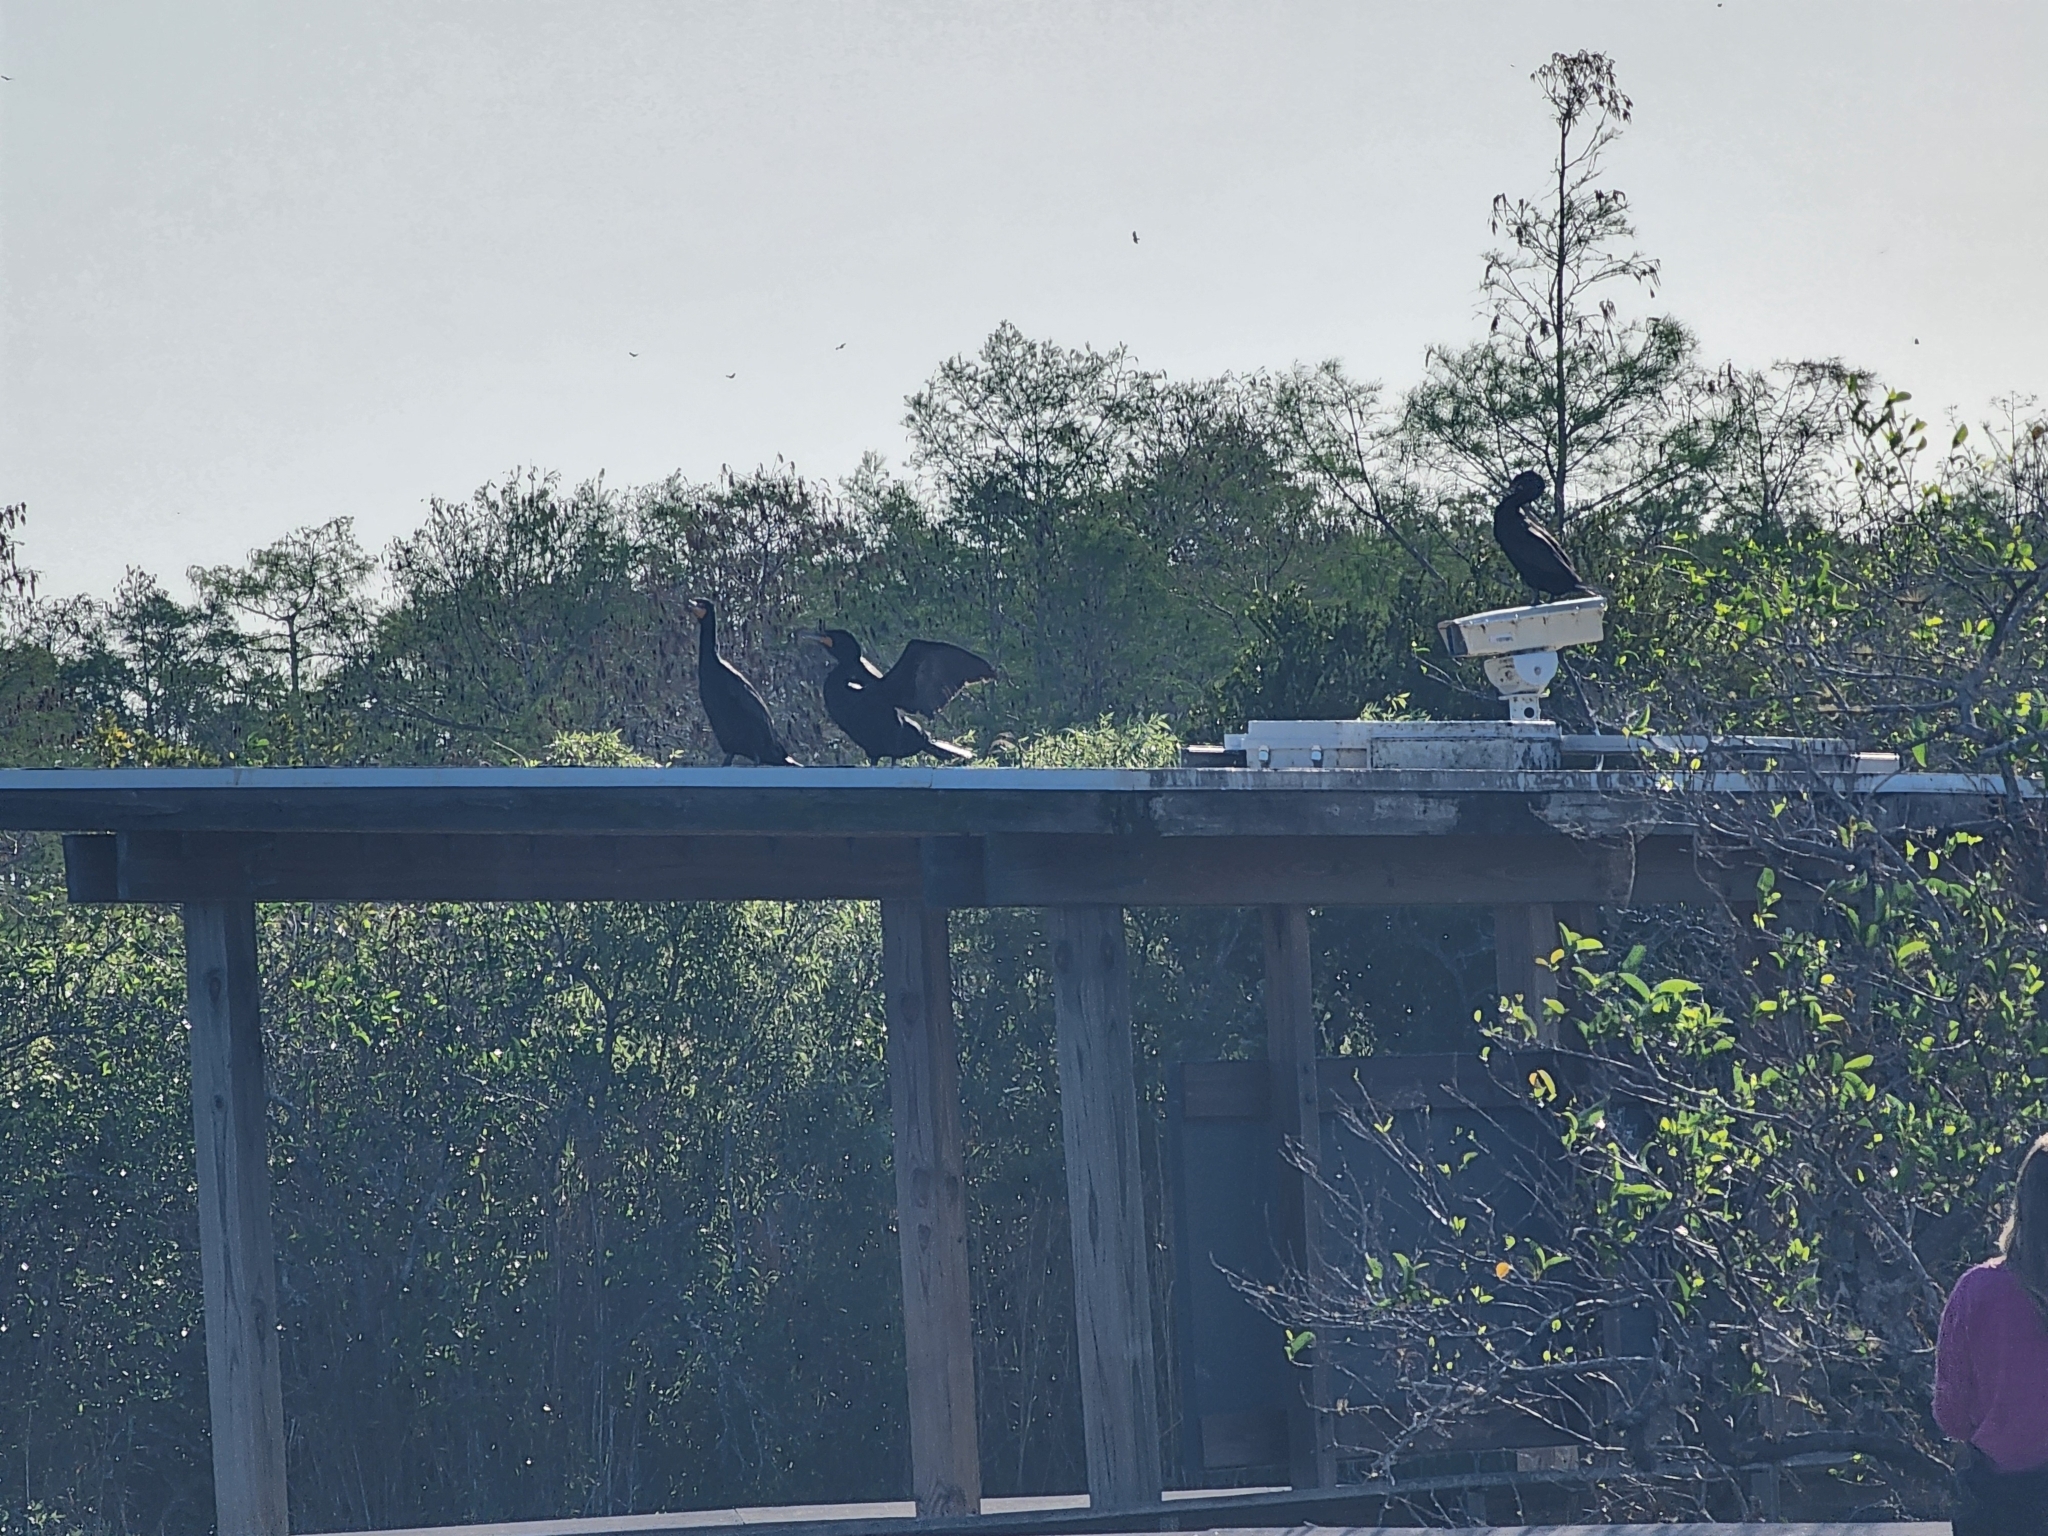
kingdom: Animalia
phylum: Chordata
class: Aves
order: Suliformes
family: Phalacrocoracidae
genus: Phalacrocorax
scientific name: Phalacrocorax brasilianus
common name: Neotropic cormorant
